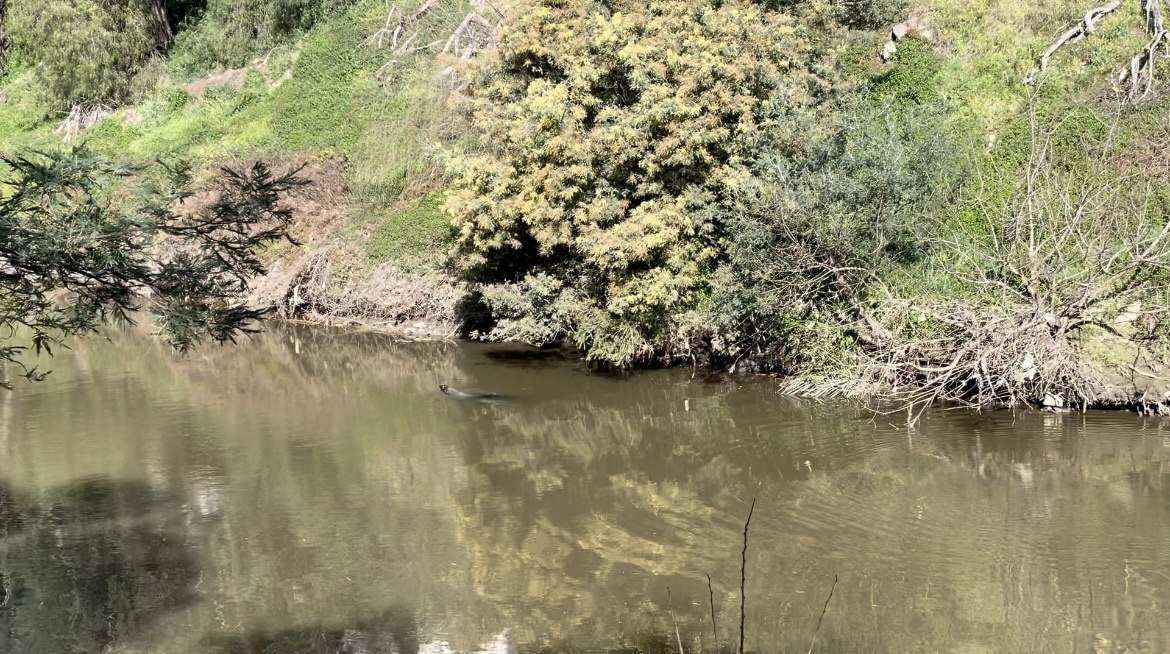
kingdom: Animalia
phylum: Chordata
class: Mammalia
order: Carnivora
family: Otariidae
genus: Arctocephalus
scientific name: Arctocephalus pusillus
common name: Brown fur seal
